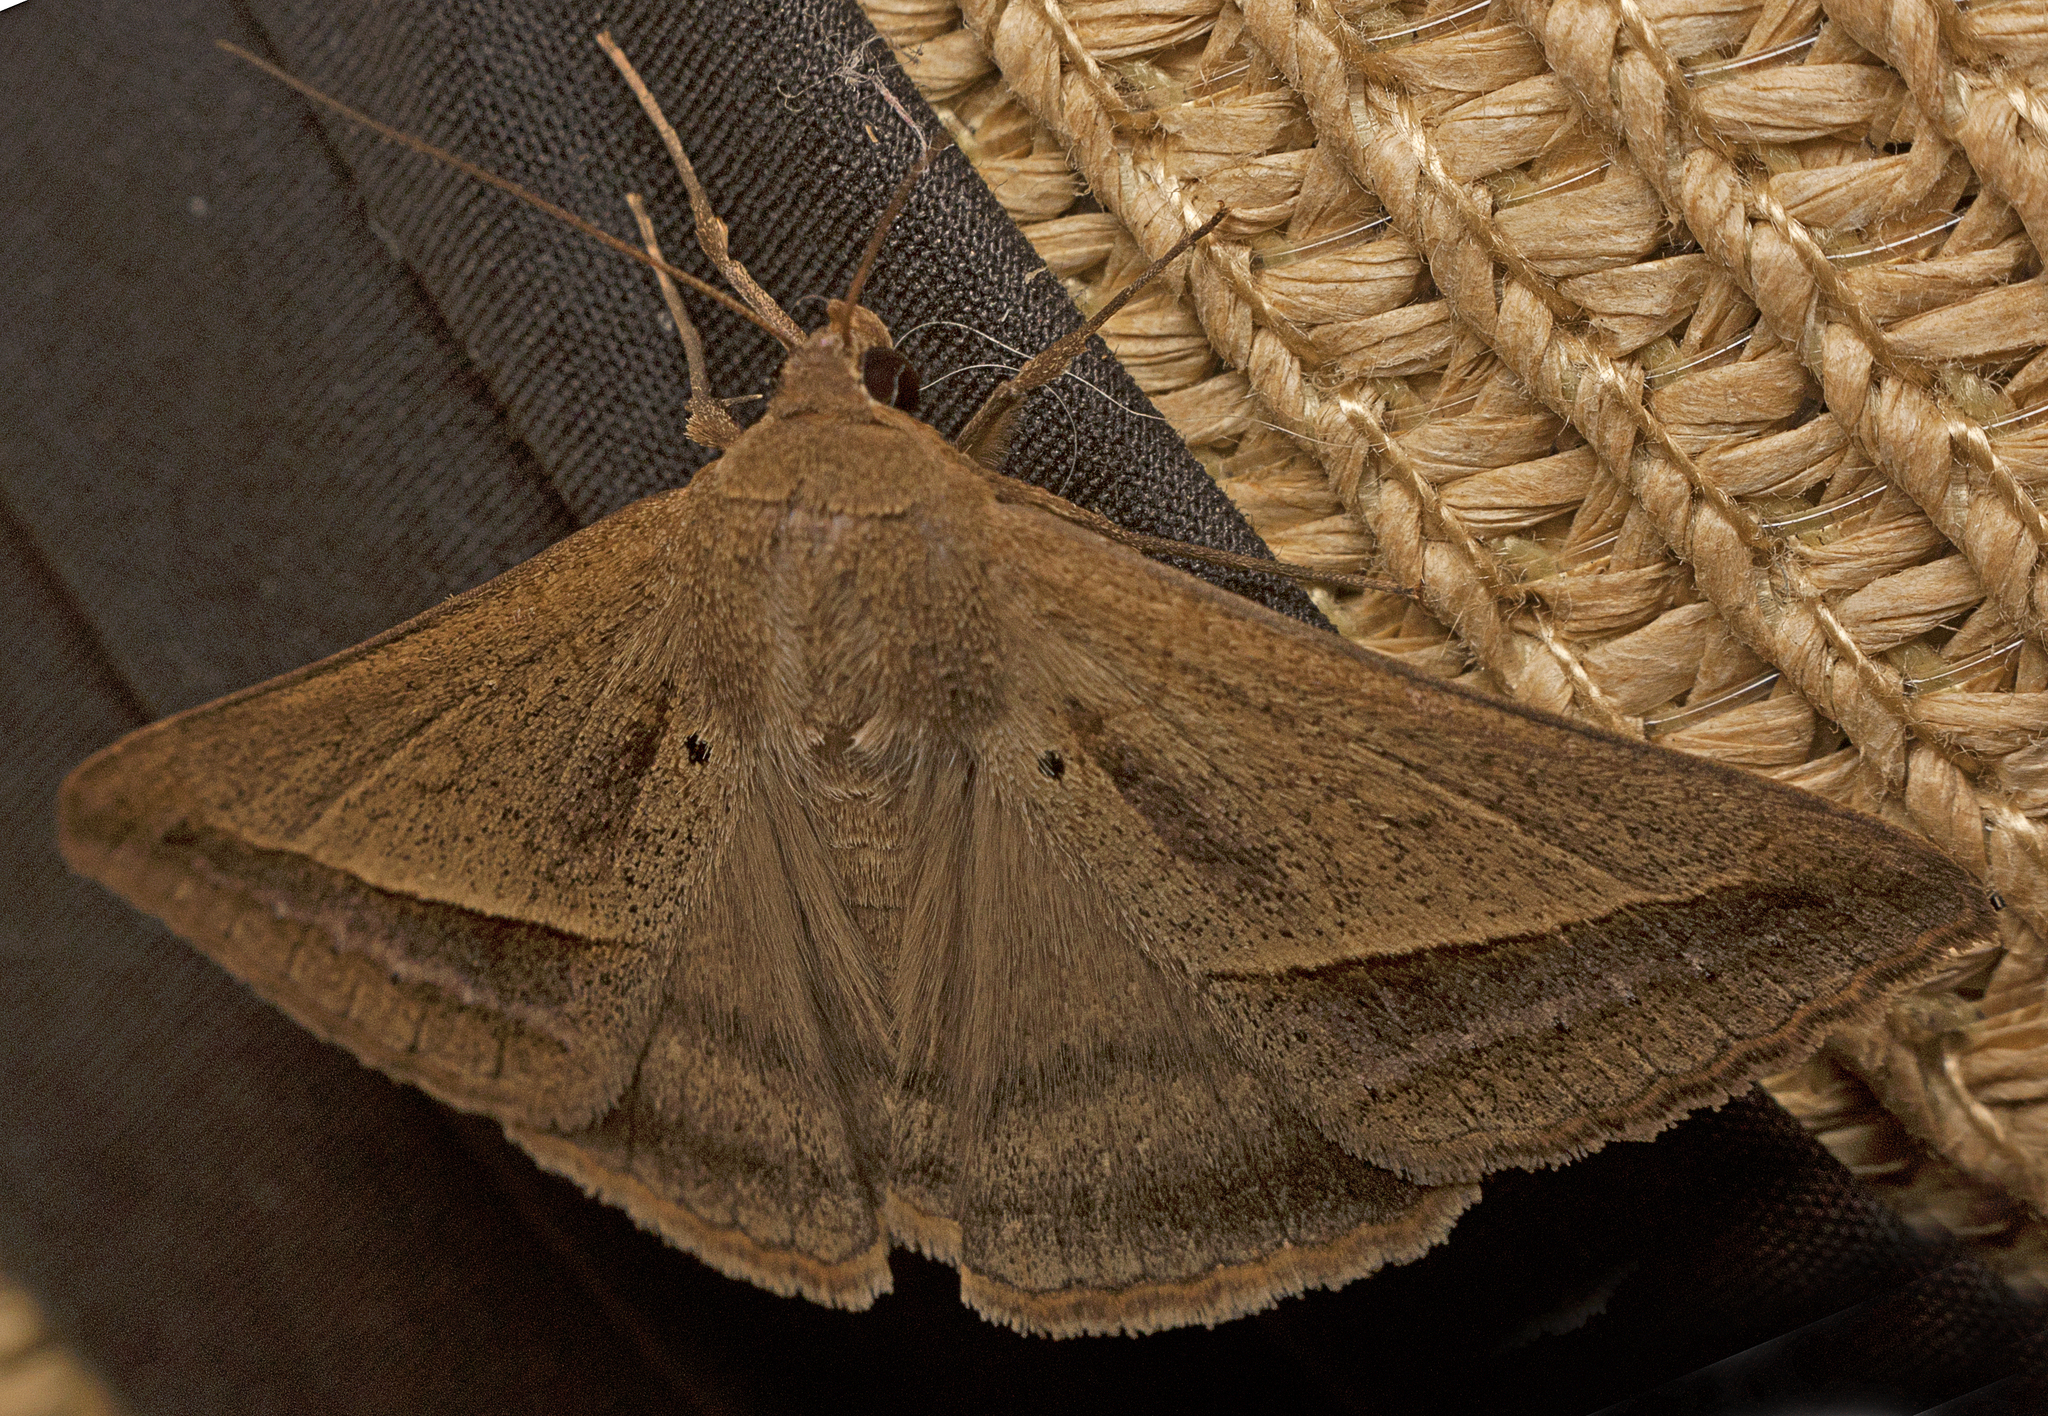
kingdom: Animalia
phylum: Arthropoda
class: Insecta
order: Lepidoptera
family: Erebidae
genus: Mocis
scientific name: Mocis frugalis
